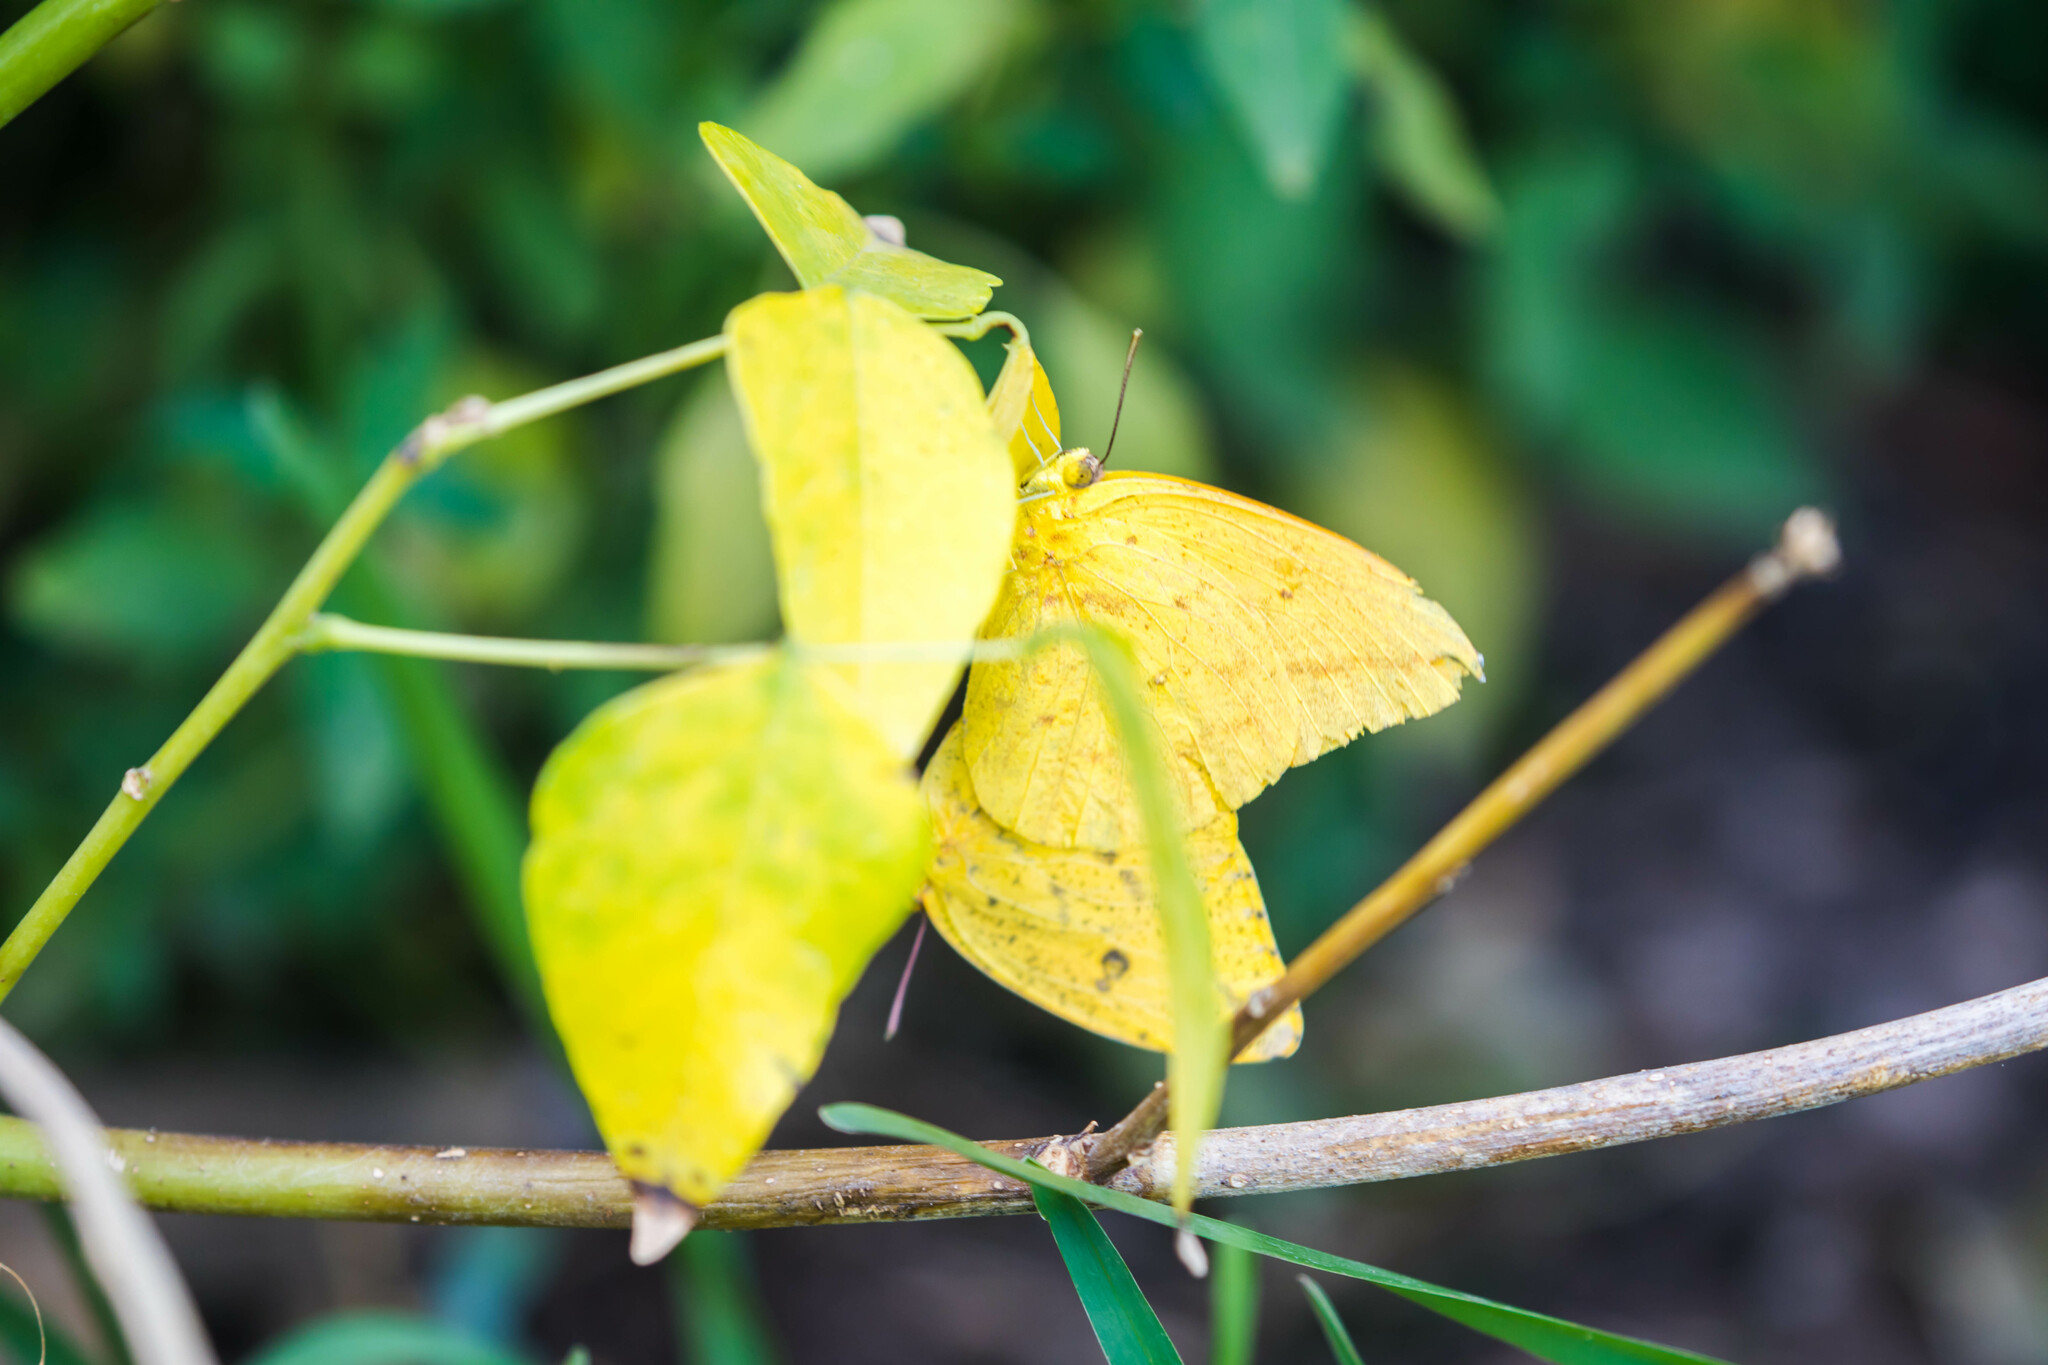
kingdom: Animalia
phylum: Arthropoda
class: Insecta
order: Lepidoptera
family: Pieridae
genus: Phoebis
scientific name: Phoebis agarithe
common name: Large orange sulphur
